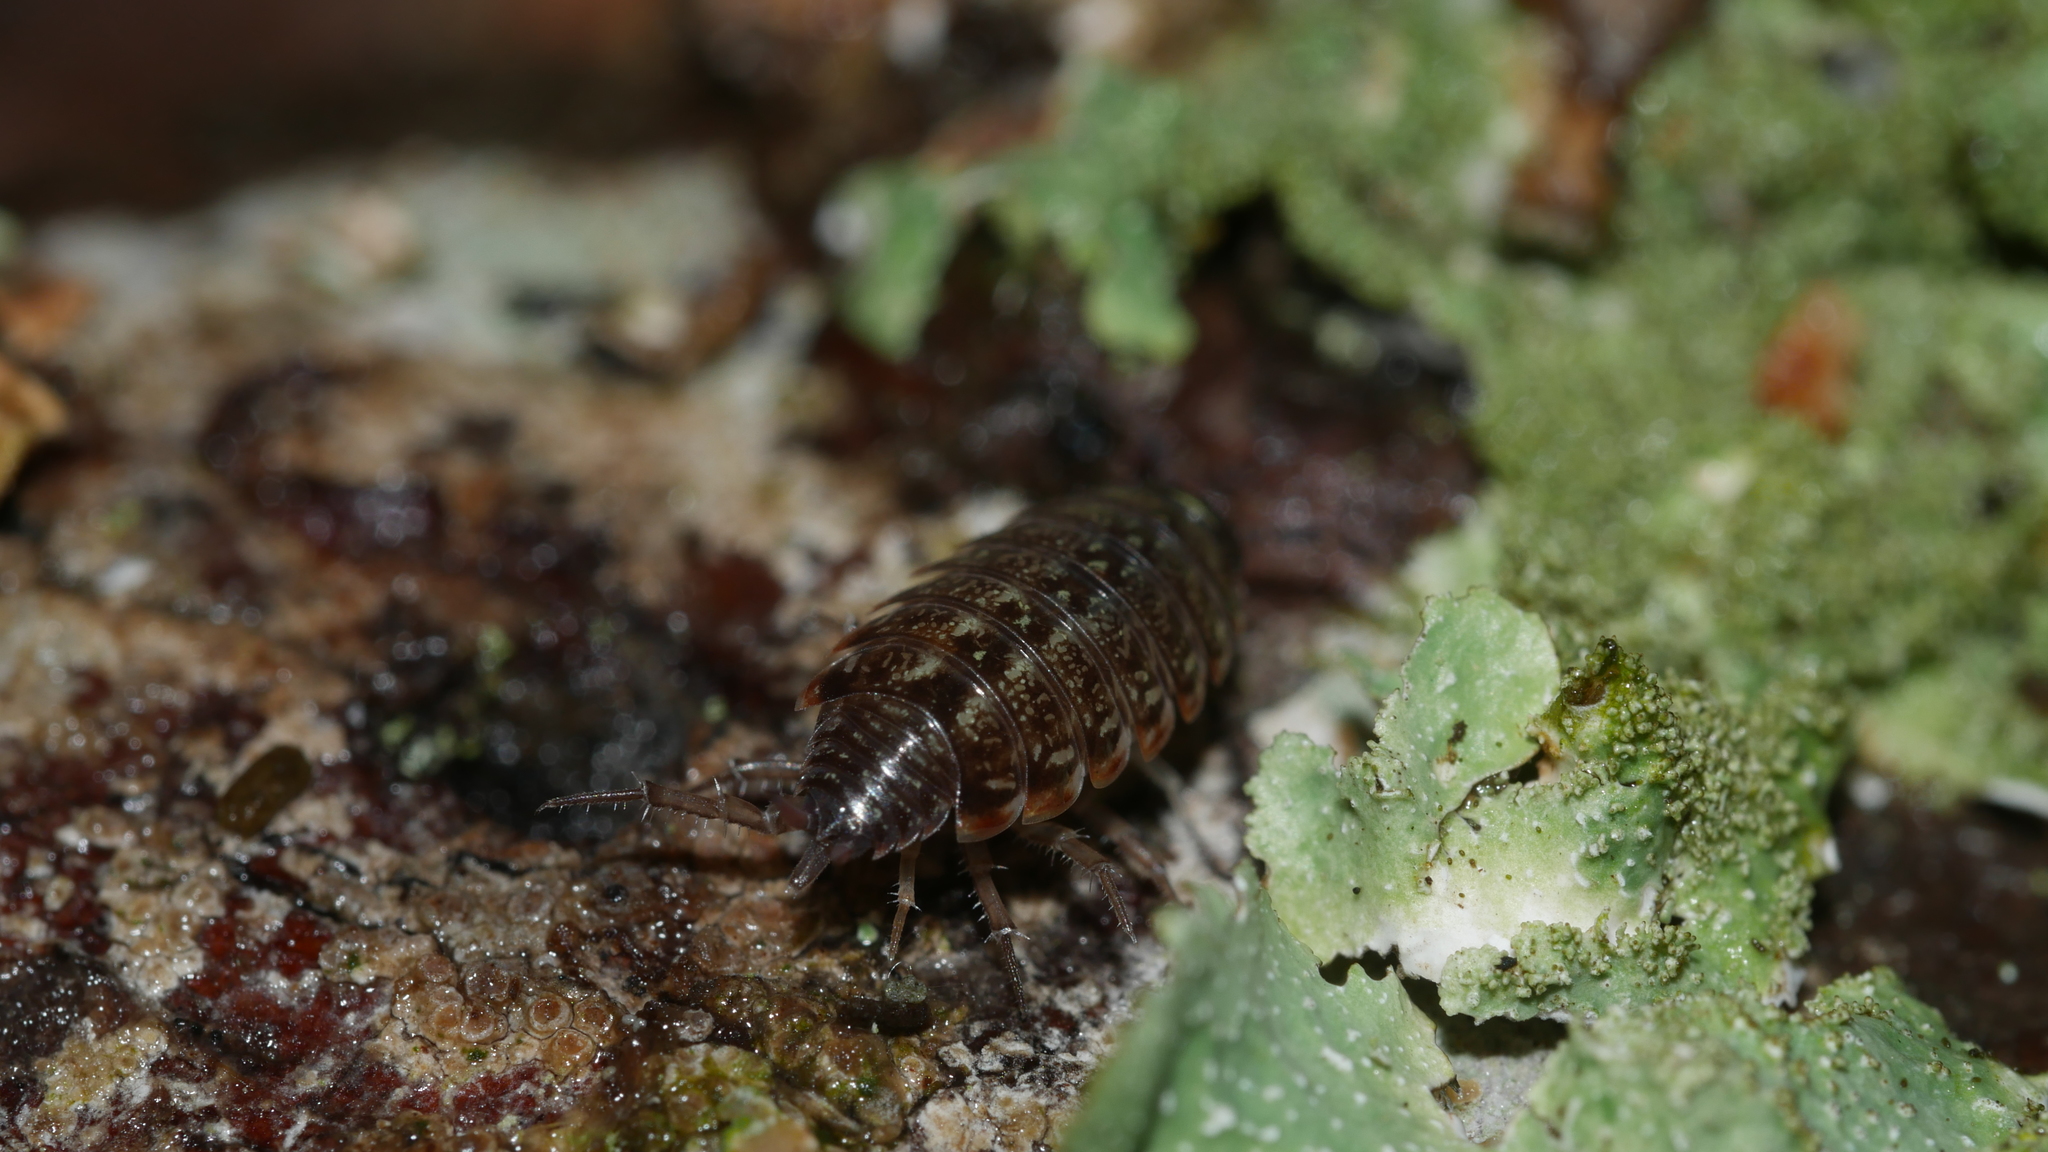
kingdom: Animalia
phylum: Arthropoda
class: Malacostraca
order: Isopoda
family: Philosciidae
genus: Philoscia
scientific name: Philoscia muscorum
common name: Common striped woodlouse
